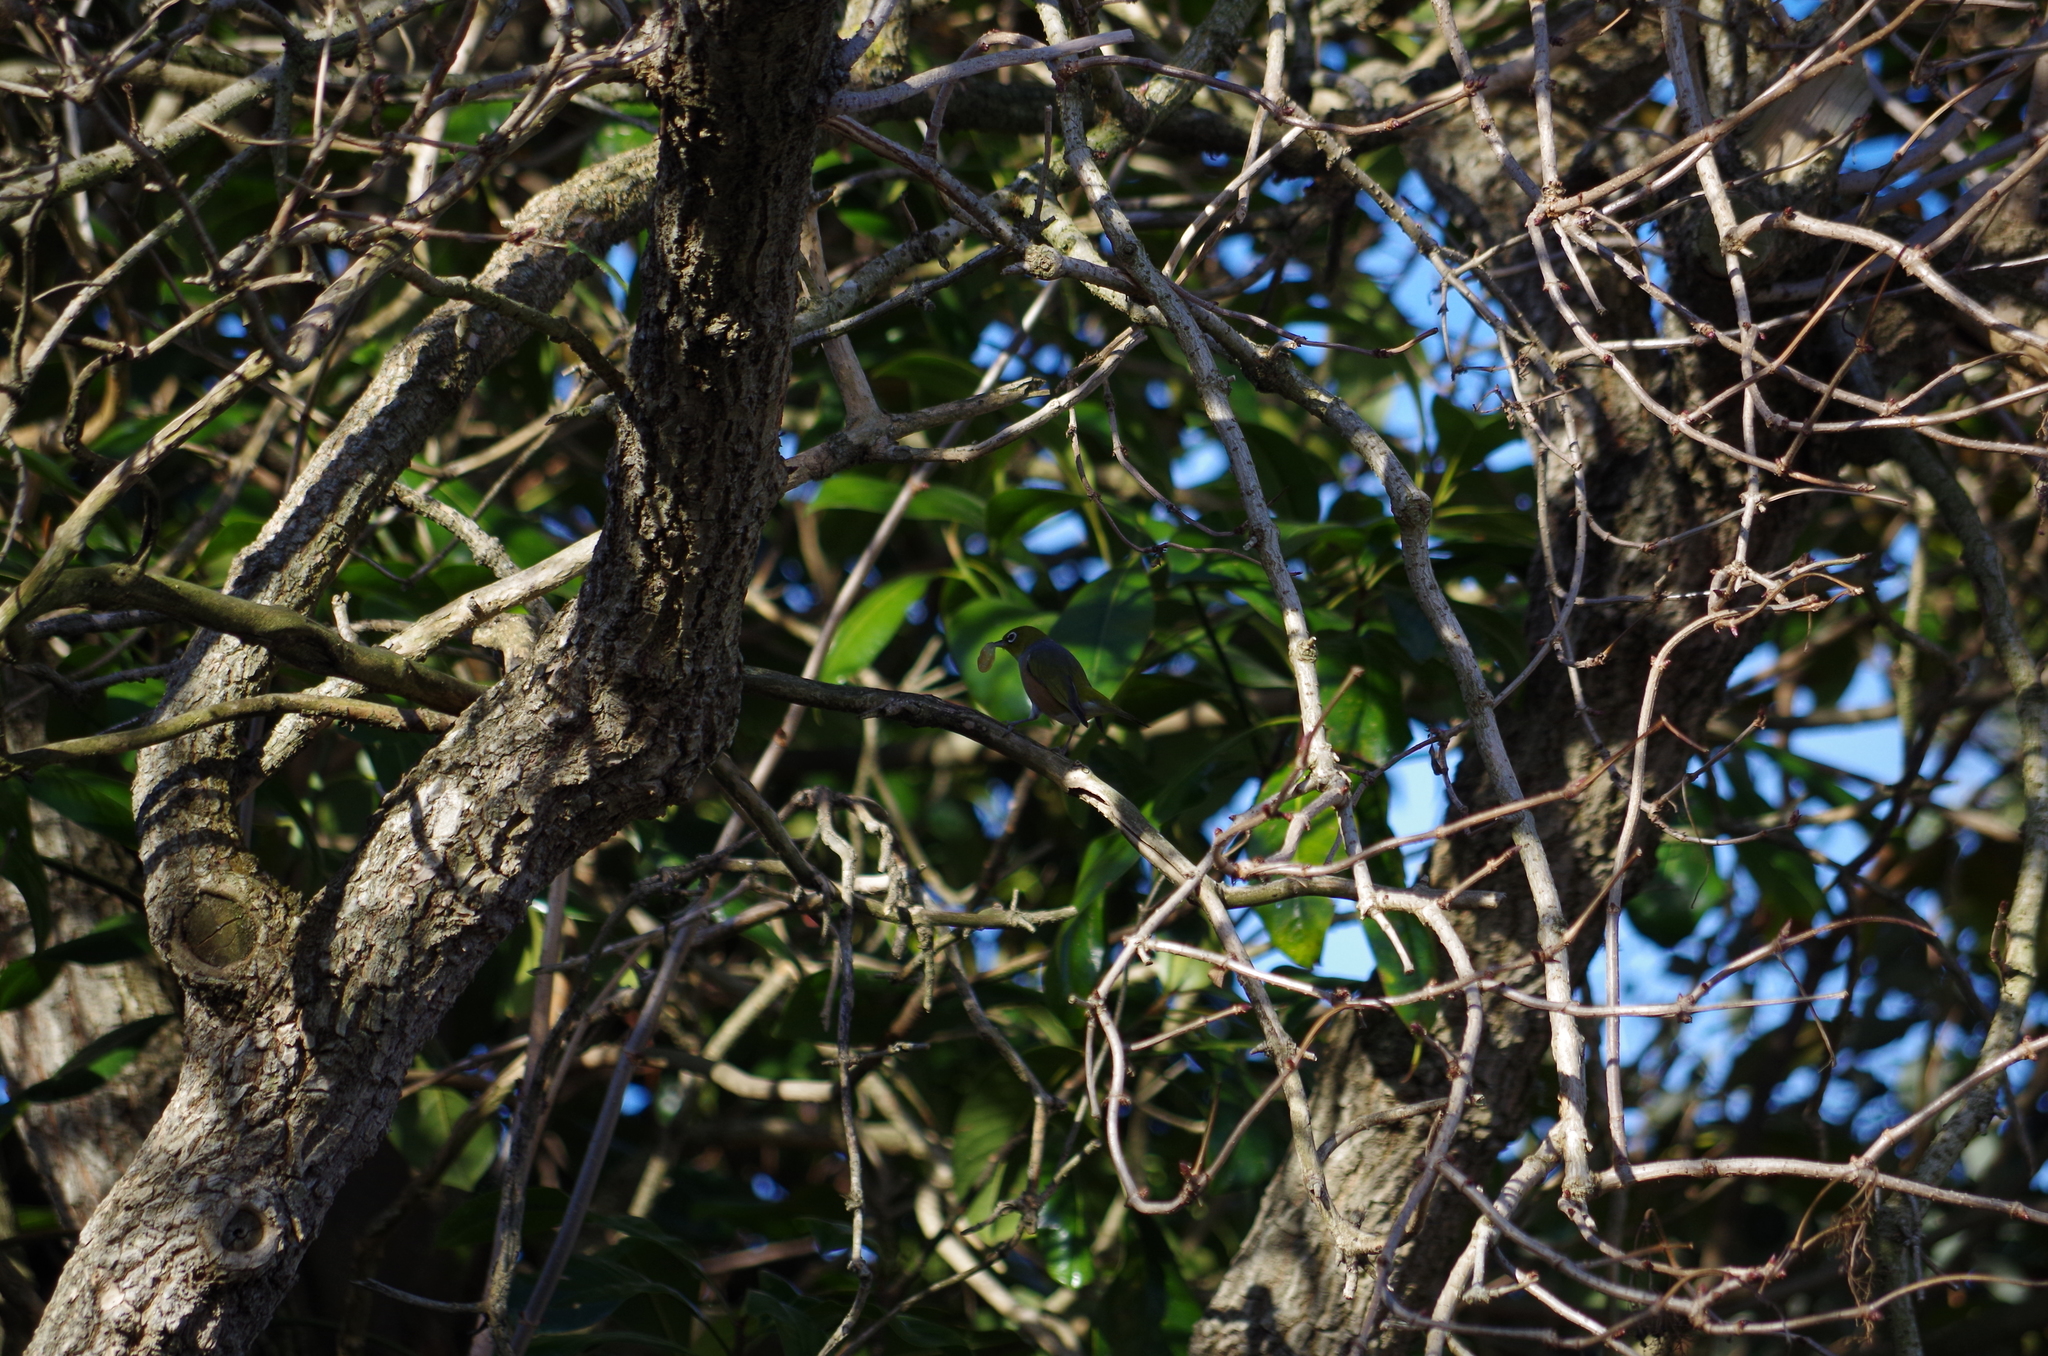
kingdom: Animalia
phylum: Chordata
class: Aves
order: Passeriformes
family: Zosteropidae
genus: Zosterops
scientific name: Zosterops lateralis
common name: Silvereye
